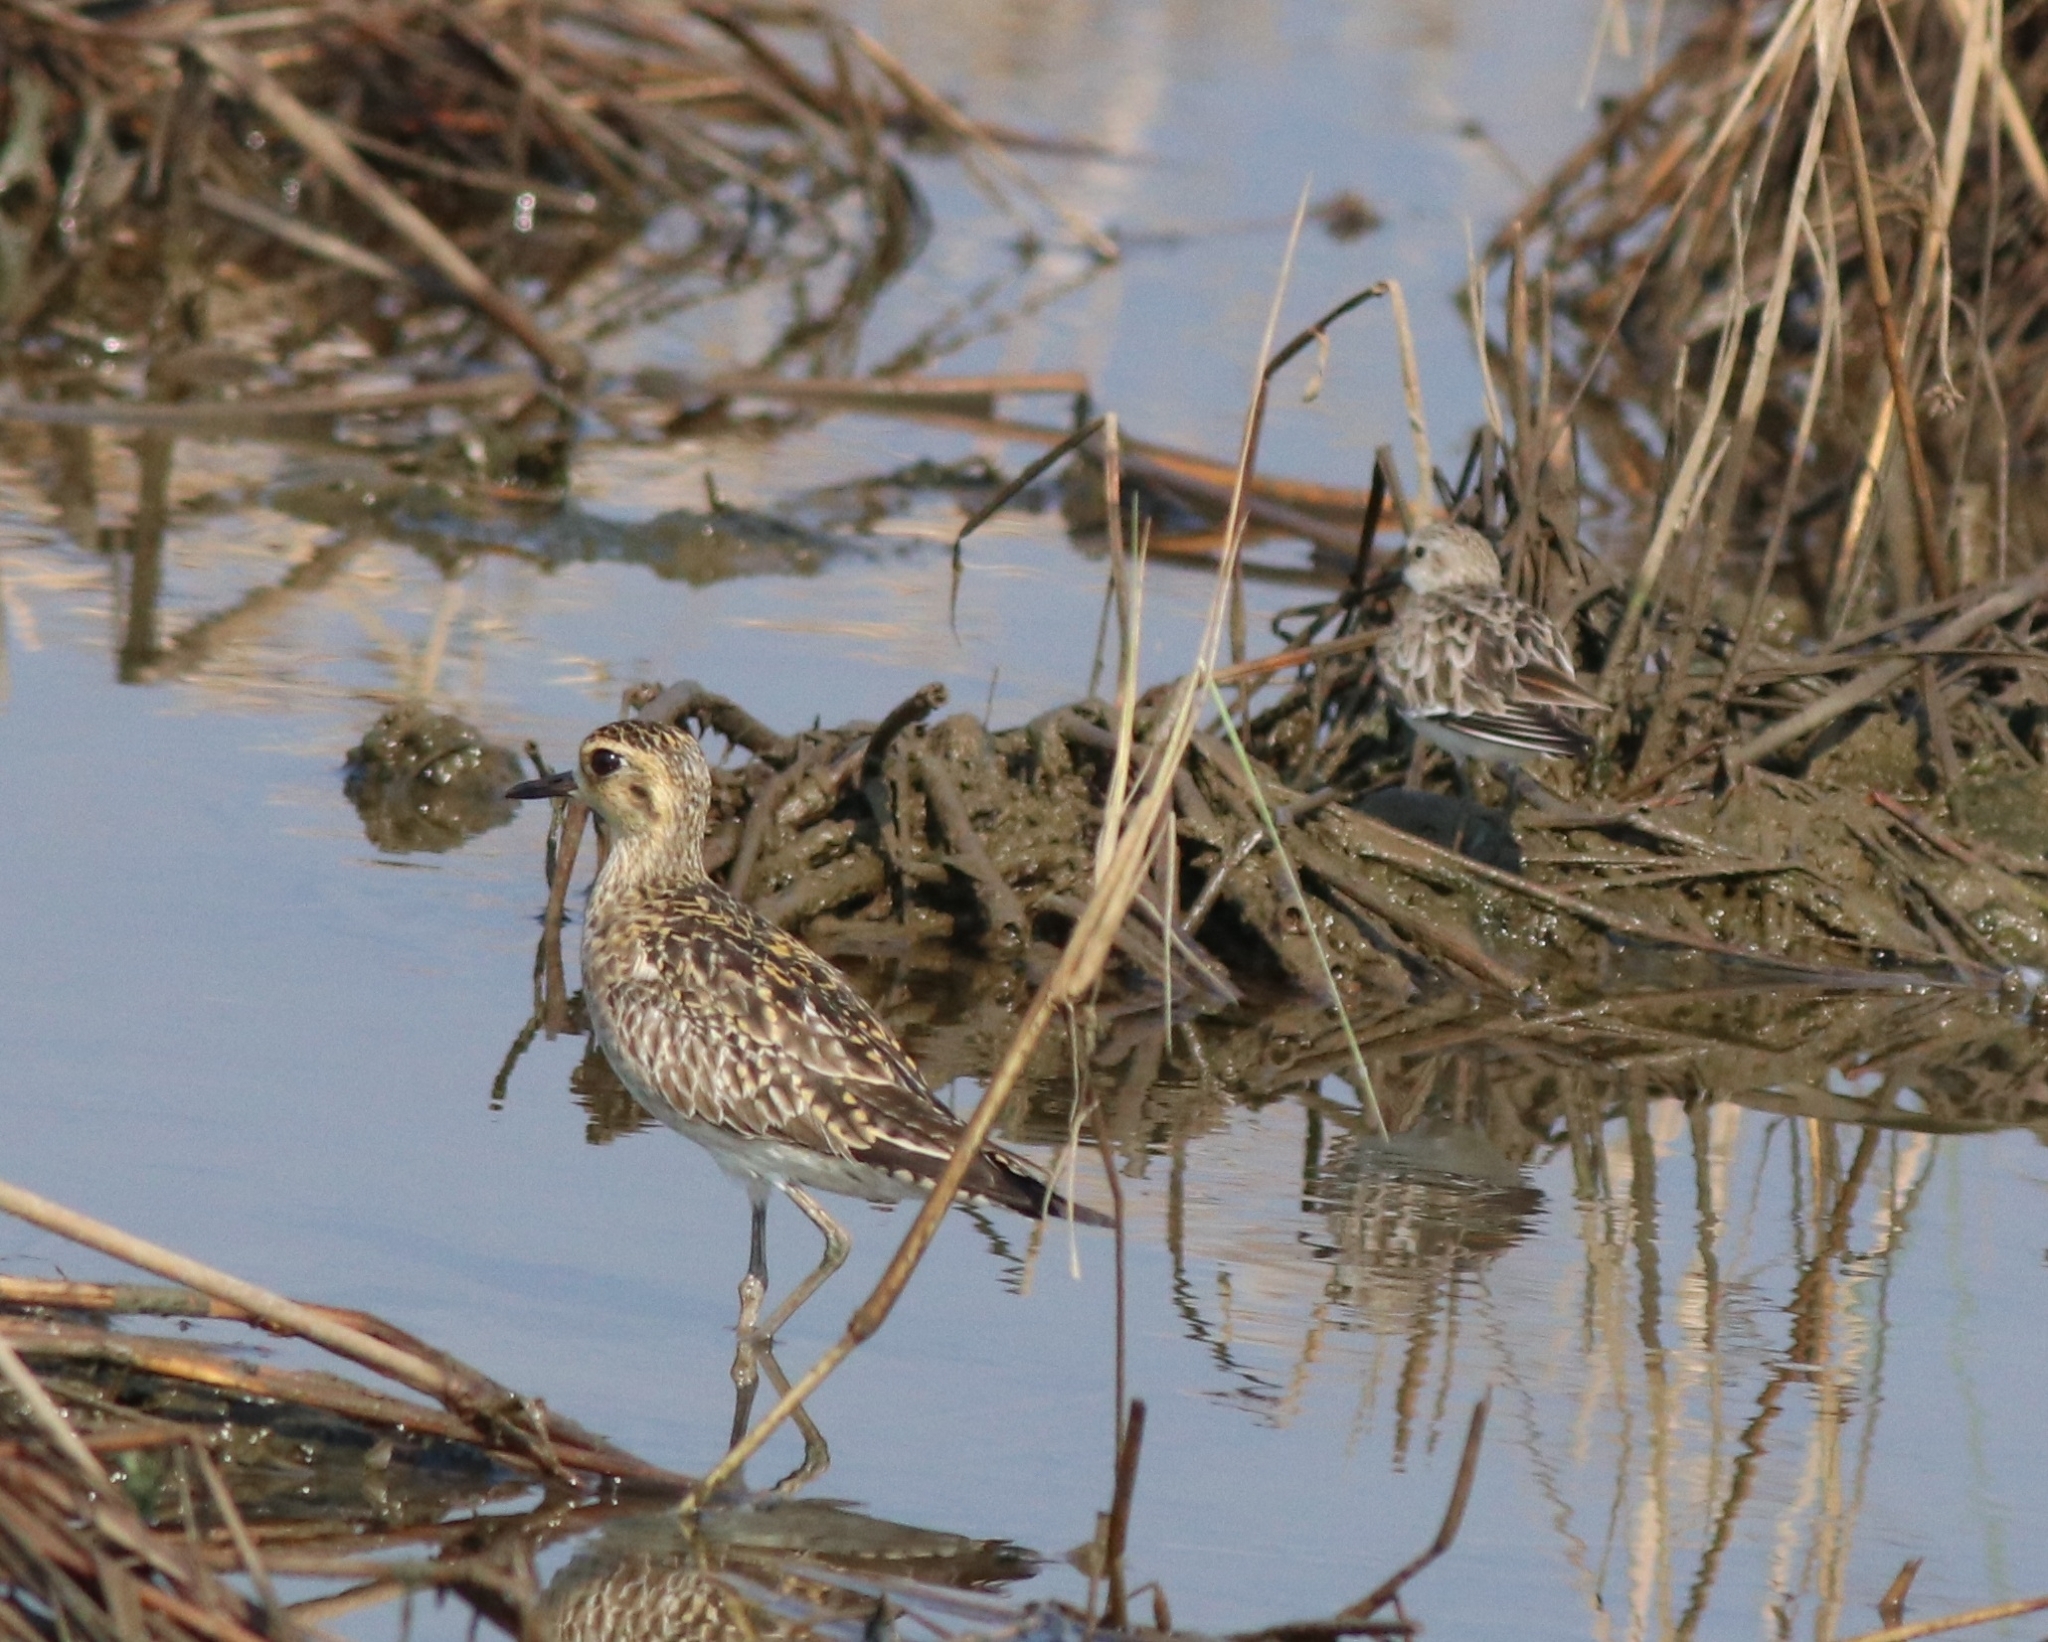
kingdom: Animalia
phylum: Chordata
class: Aves
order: Charadriiformes
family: Charadriidae
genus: Pluvialis
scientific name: Pluvialis fulva
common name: Pacific golden plover
